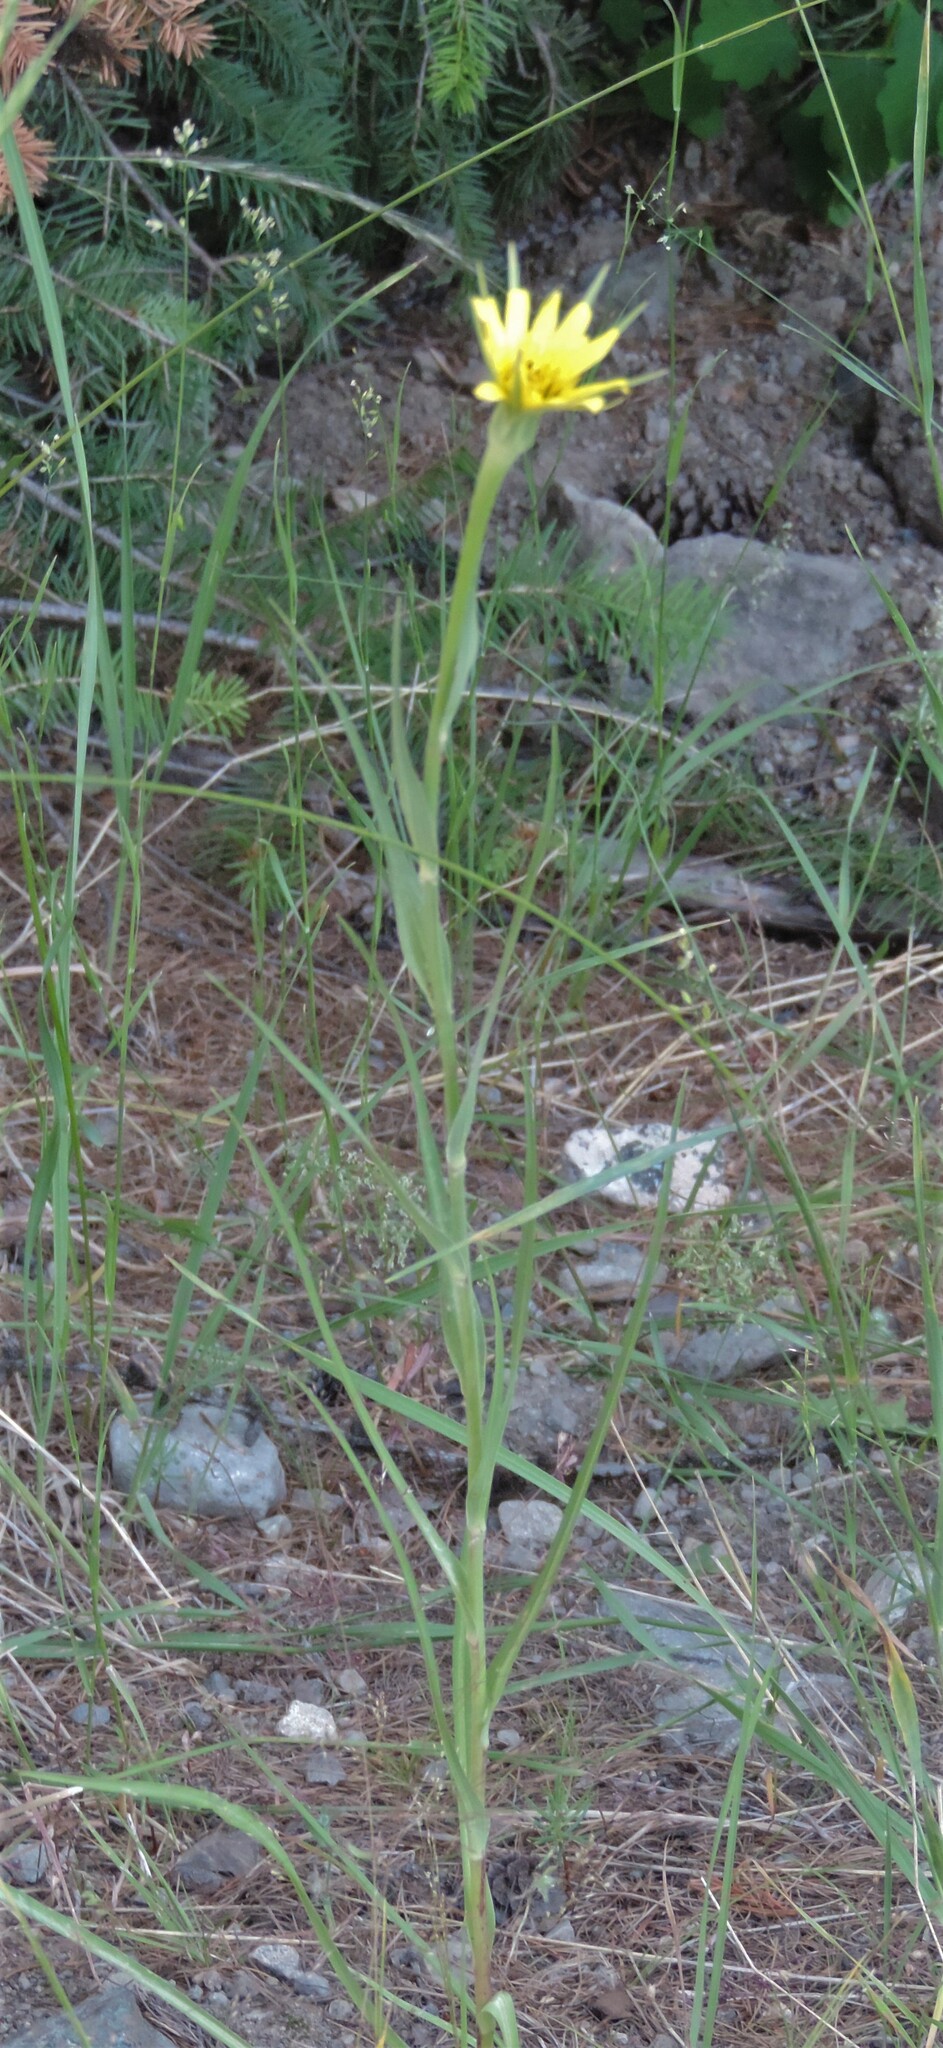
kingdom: Plantae
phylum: Tracheophyta
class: Magnoliopsida
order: Asterales
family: Asteraceae
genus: Tragopogon
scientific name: Tragopogon dubius
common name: Yellow salsify
